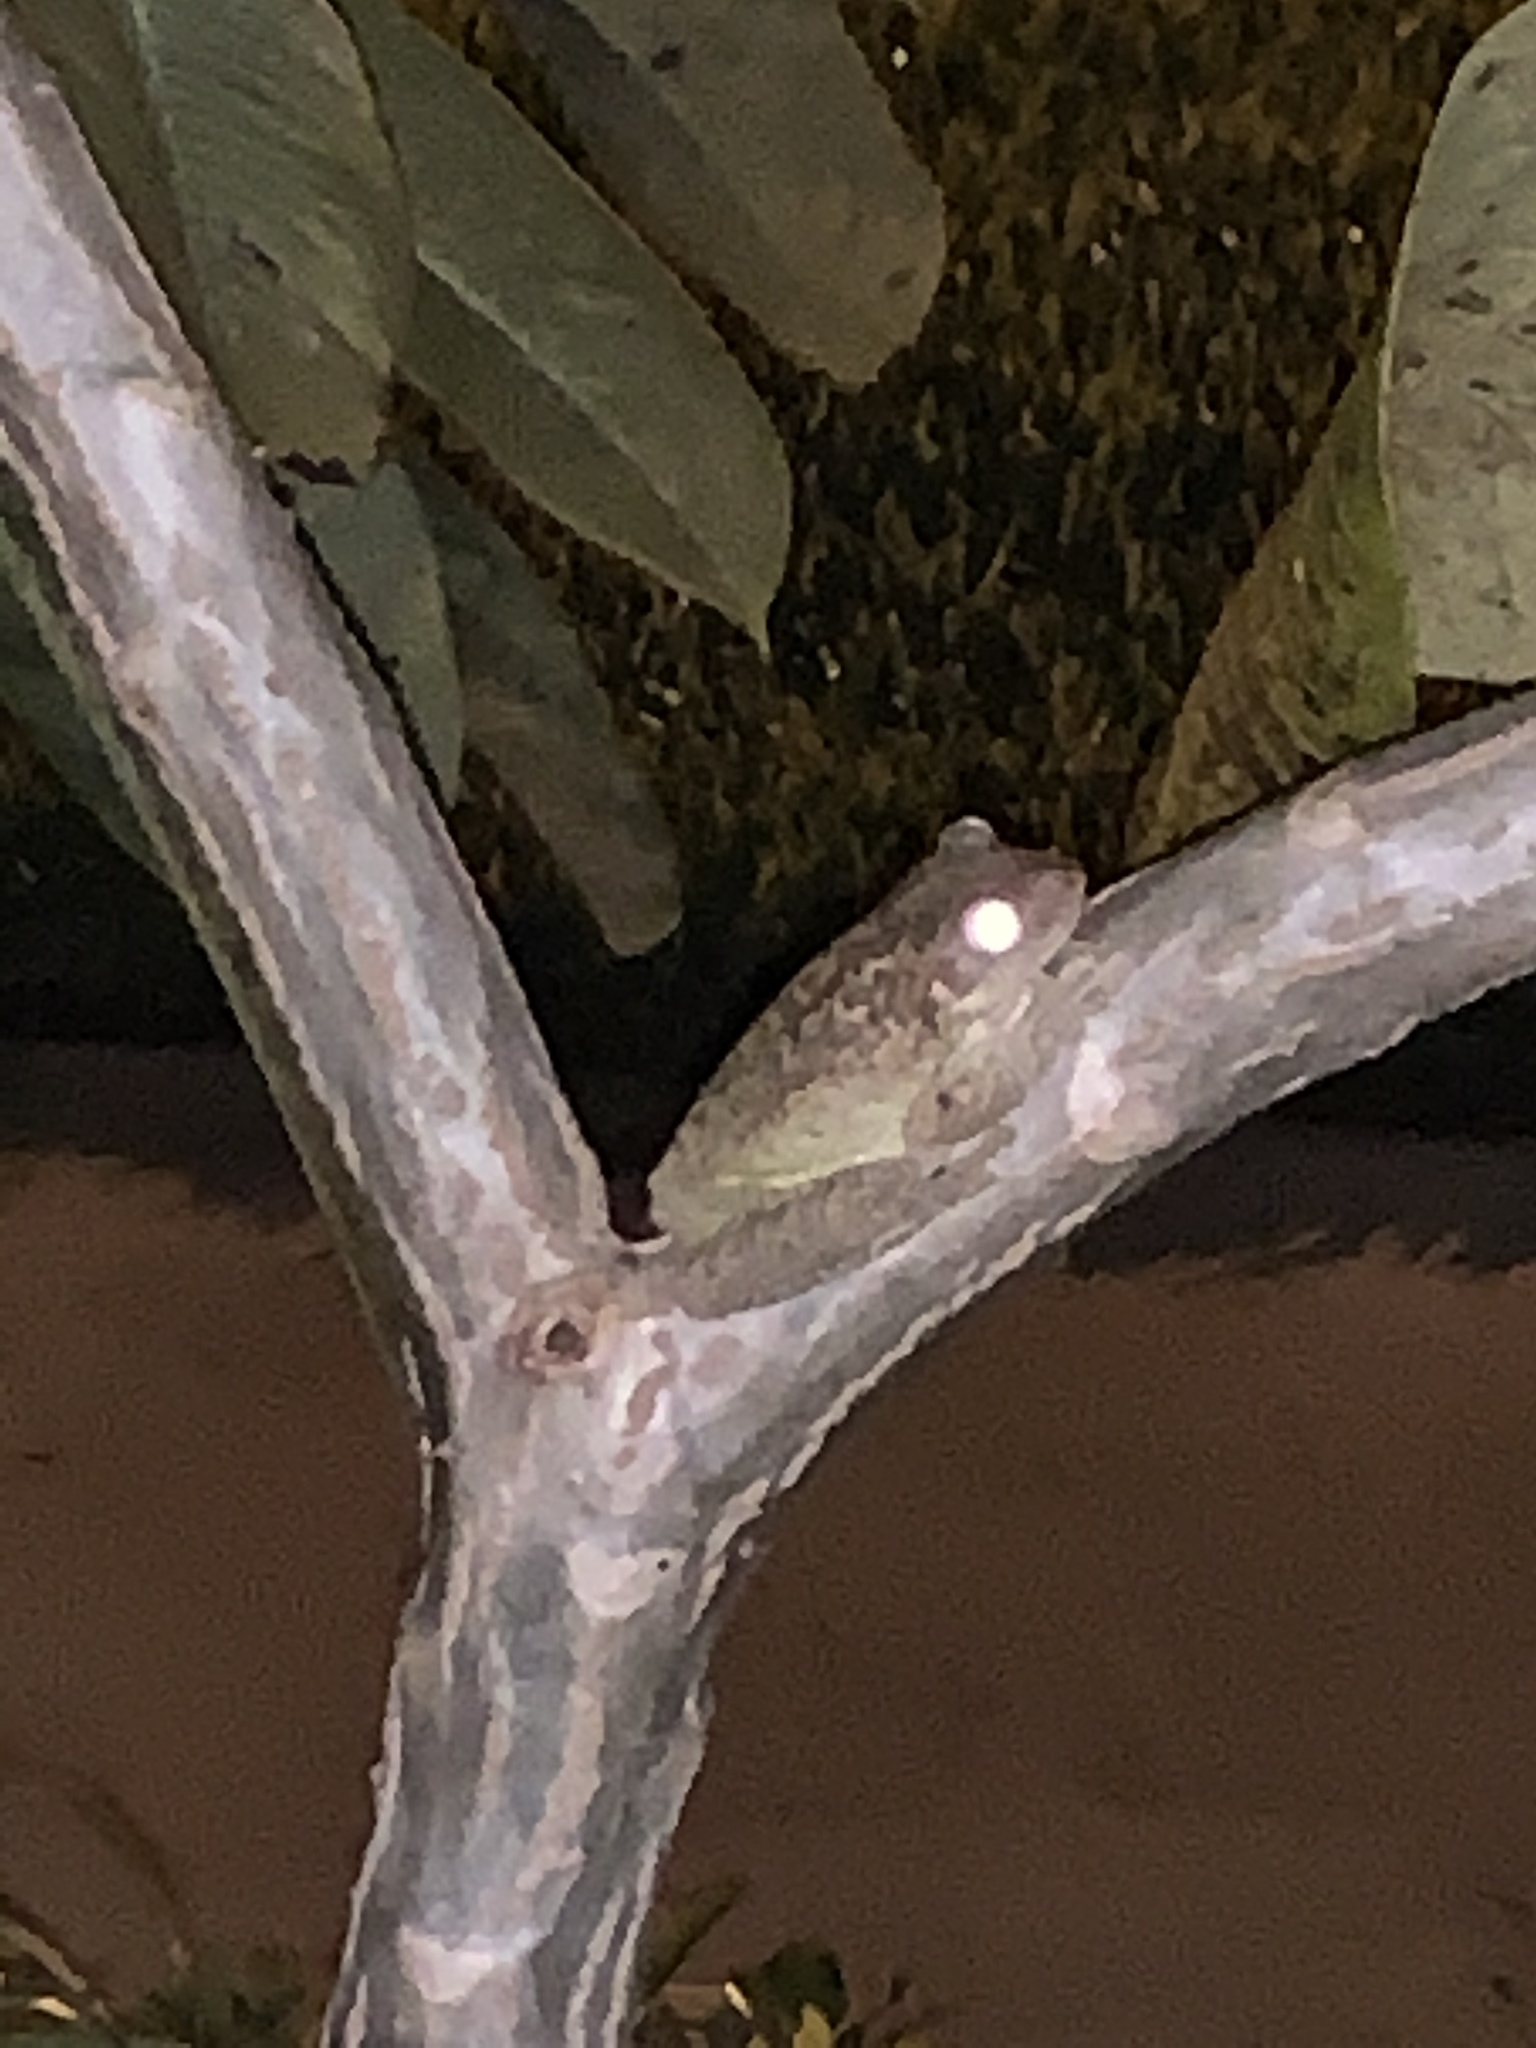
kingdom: Animalia
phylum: Chordata
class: Amphibia
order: Anura
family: Hylidae
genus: Osteopilus
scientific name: Osteopilus septentrionalis
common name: Cuban treefrog
